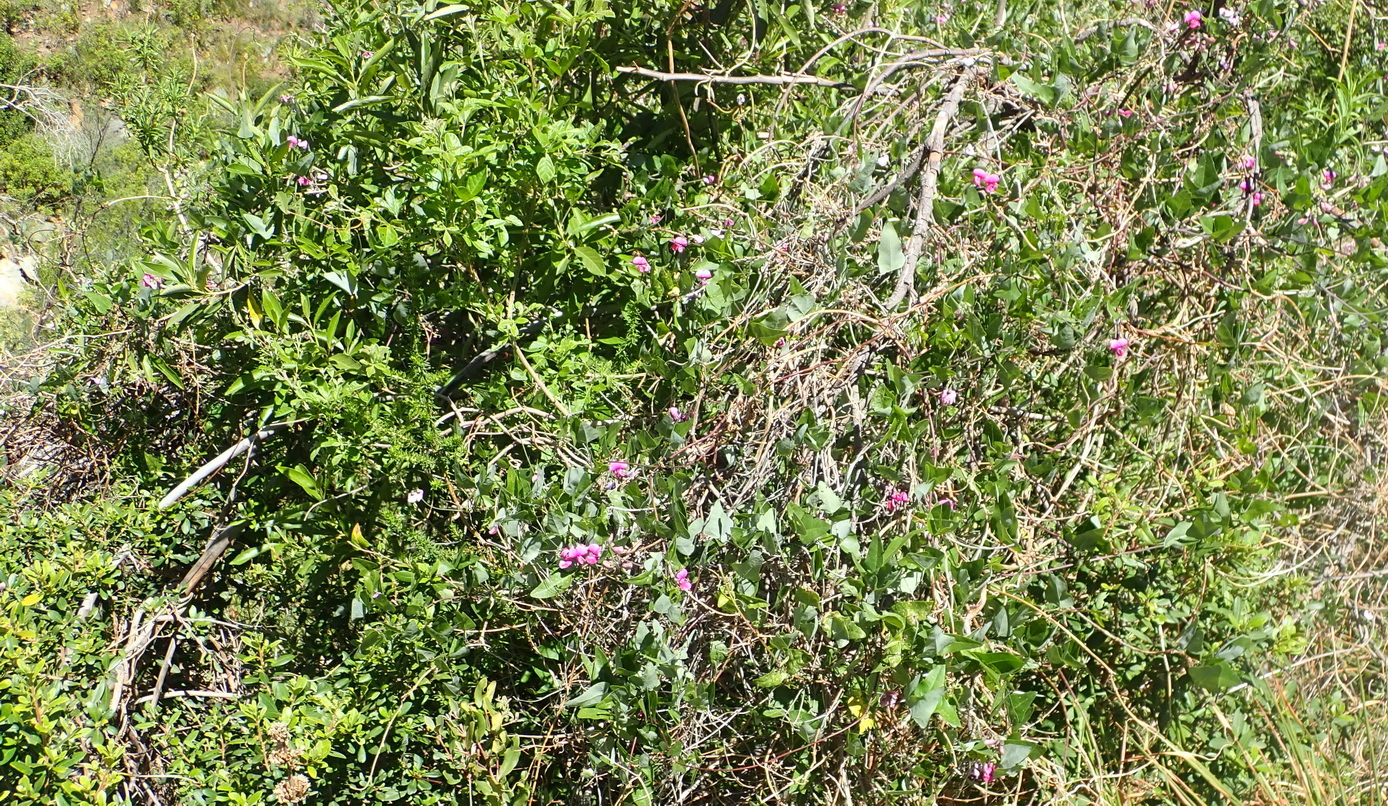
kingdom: Plantae
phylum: Tracheophyta
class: Magnoliopsida
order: Fabales
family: Fabaceae
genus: Dipogon
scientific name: Dipogon lignosus
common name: Okie bean
